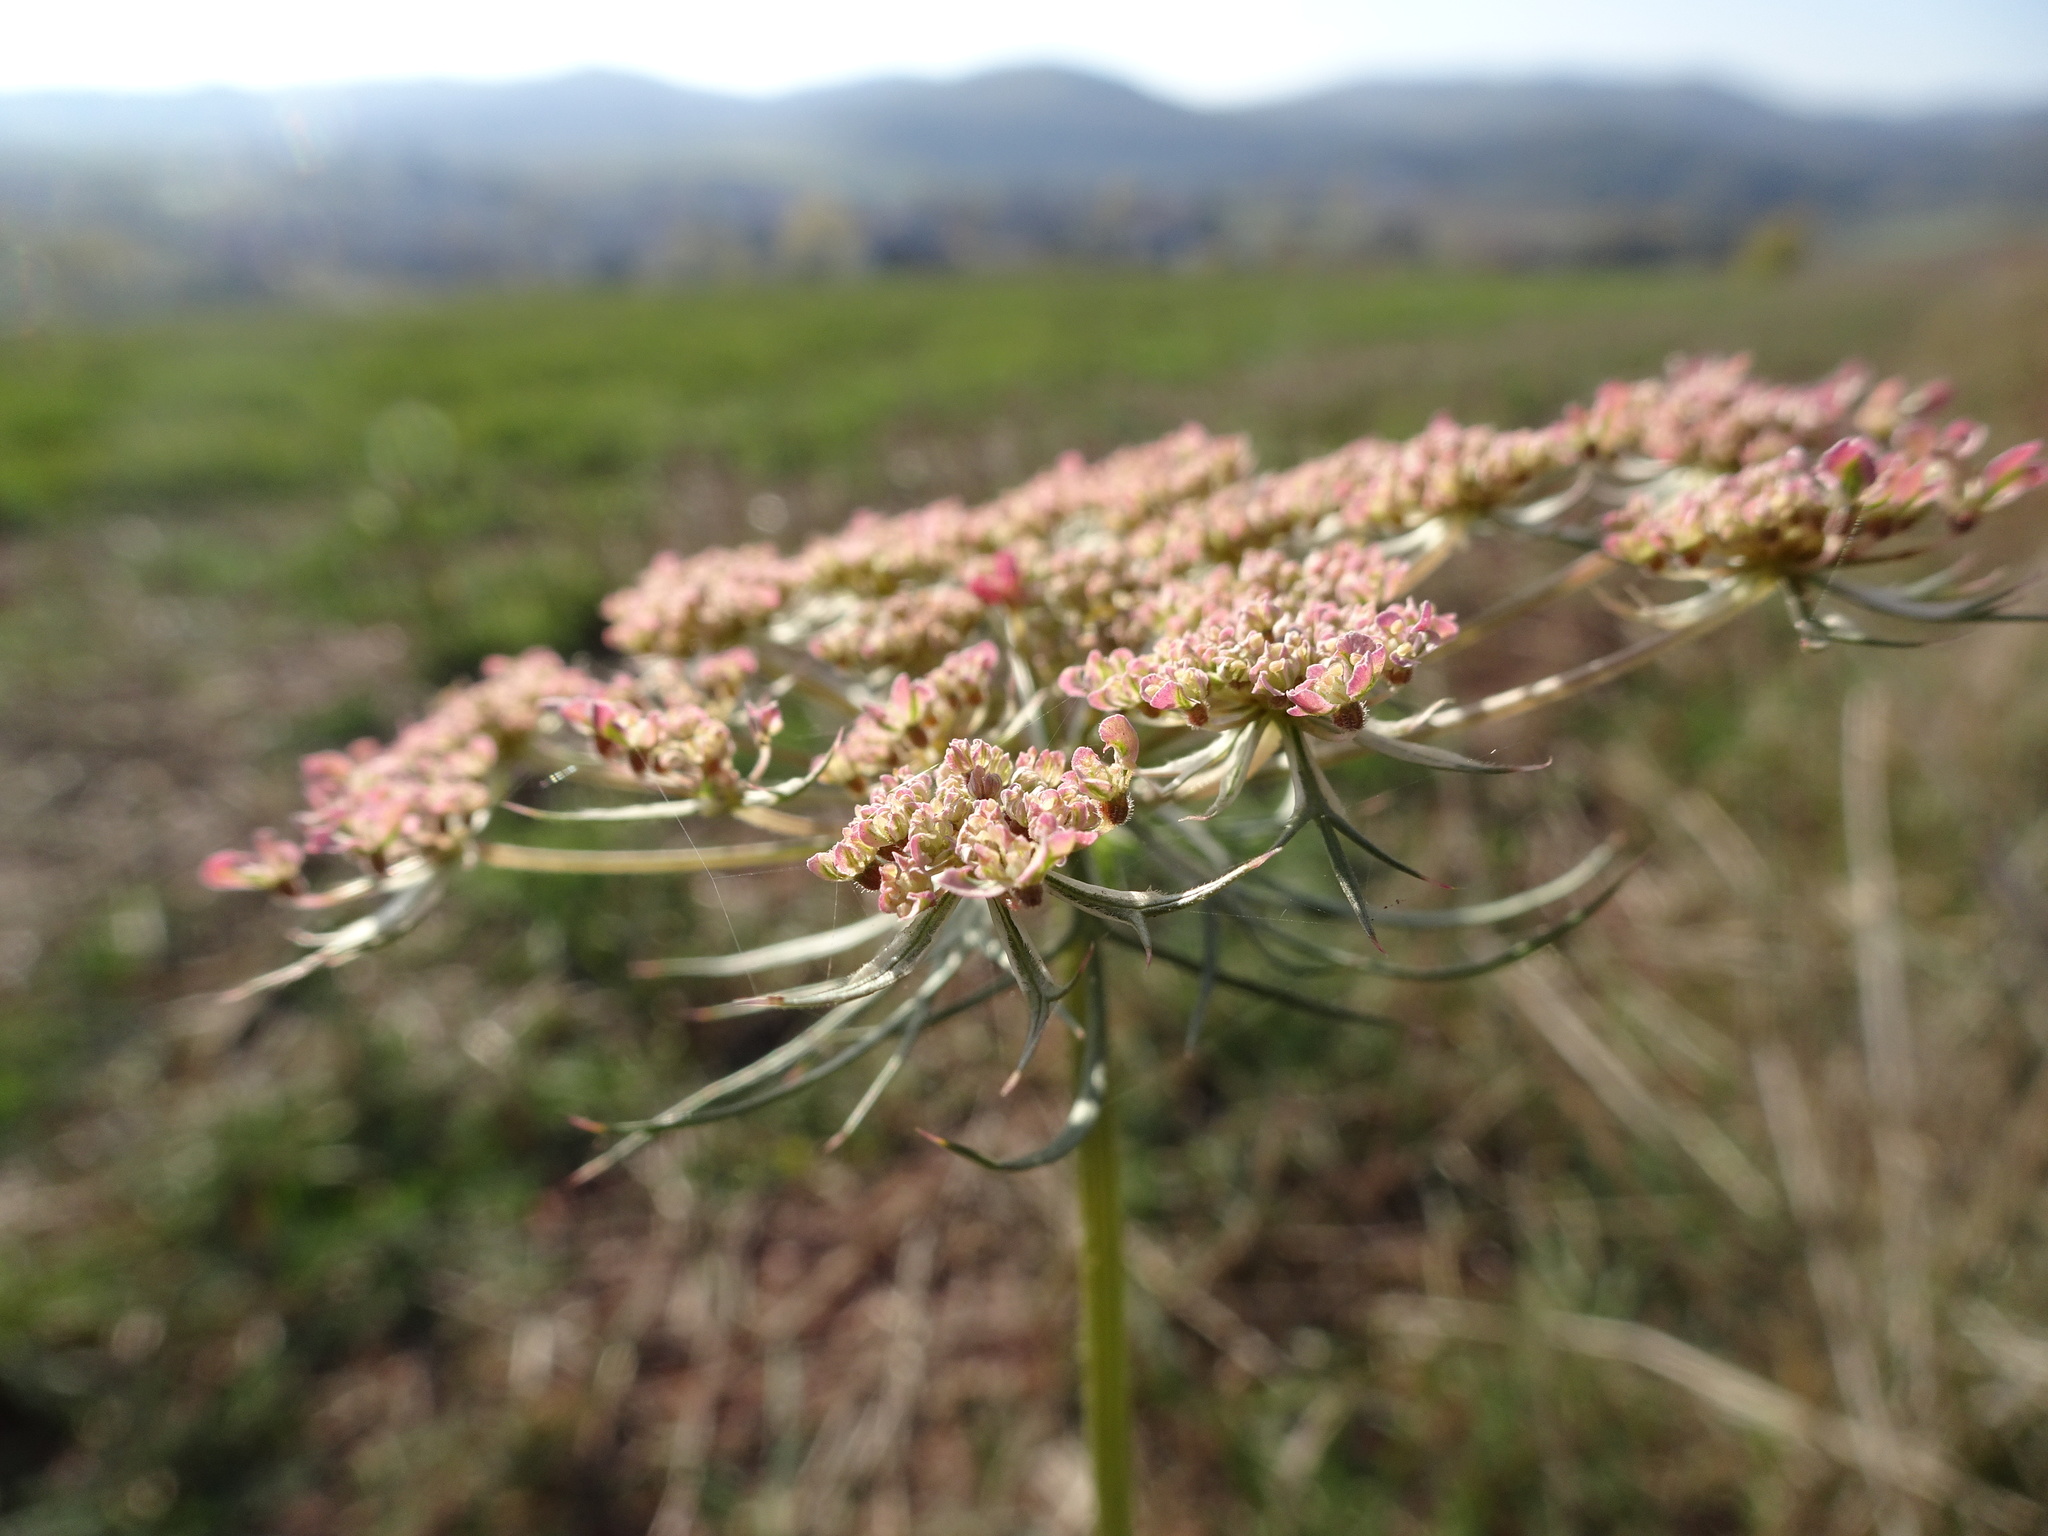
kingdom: Plantae
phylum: Tracheophyta
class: Magnoliopsida
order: Apiales
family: Apiaceae
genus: Daucus
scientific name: Daucus carota
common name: Wild carrot
